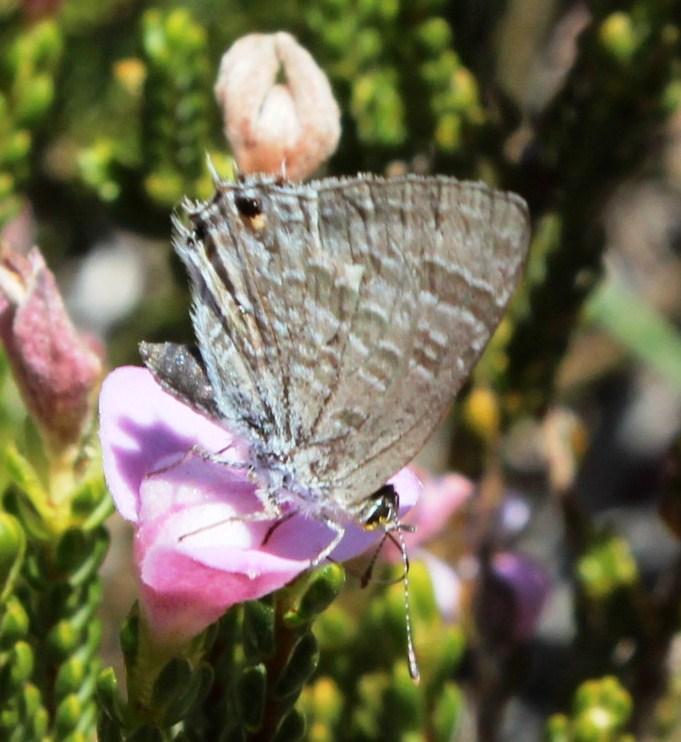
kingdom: Animalia
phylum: Arthropoda
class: Insecta
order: Lepidoptera
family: Lycaenidae
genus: Anthene
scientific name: Anthene definita
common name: Common ciliate blue
